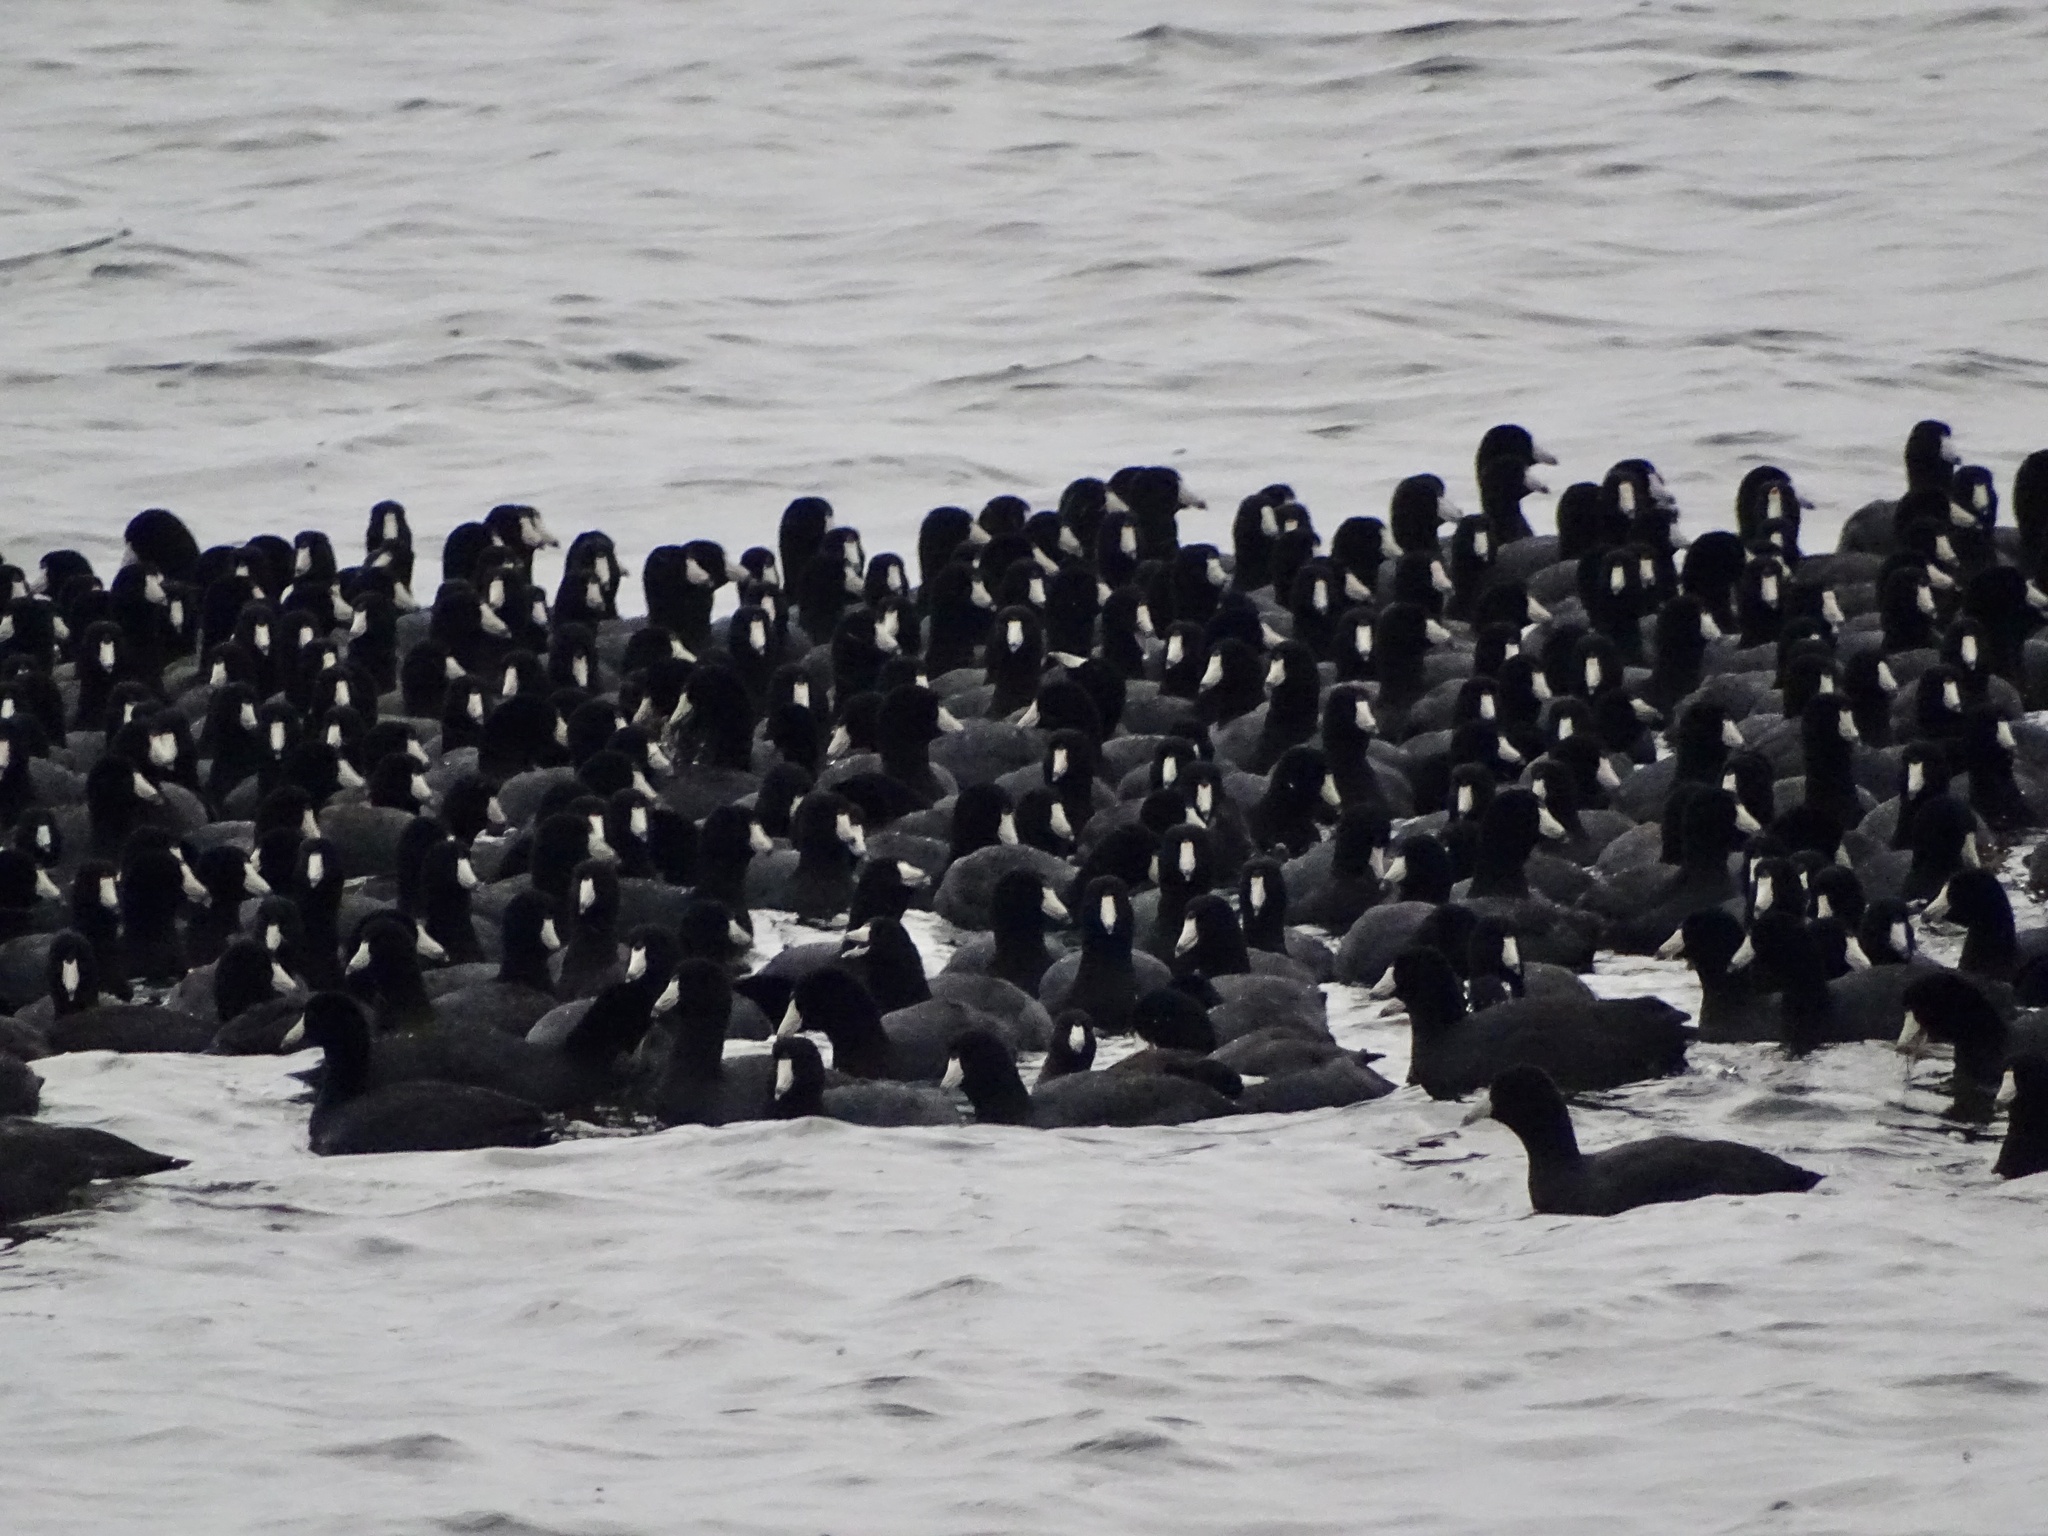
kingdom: Animalia
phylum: Chordata
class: Aves
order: Gruiformes
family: Rallidae
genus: Fulica
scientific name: Fulica americana
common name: American coot
